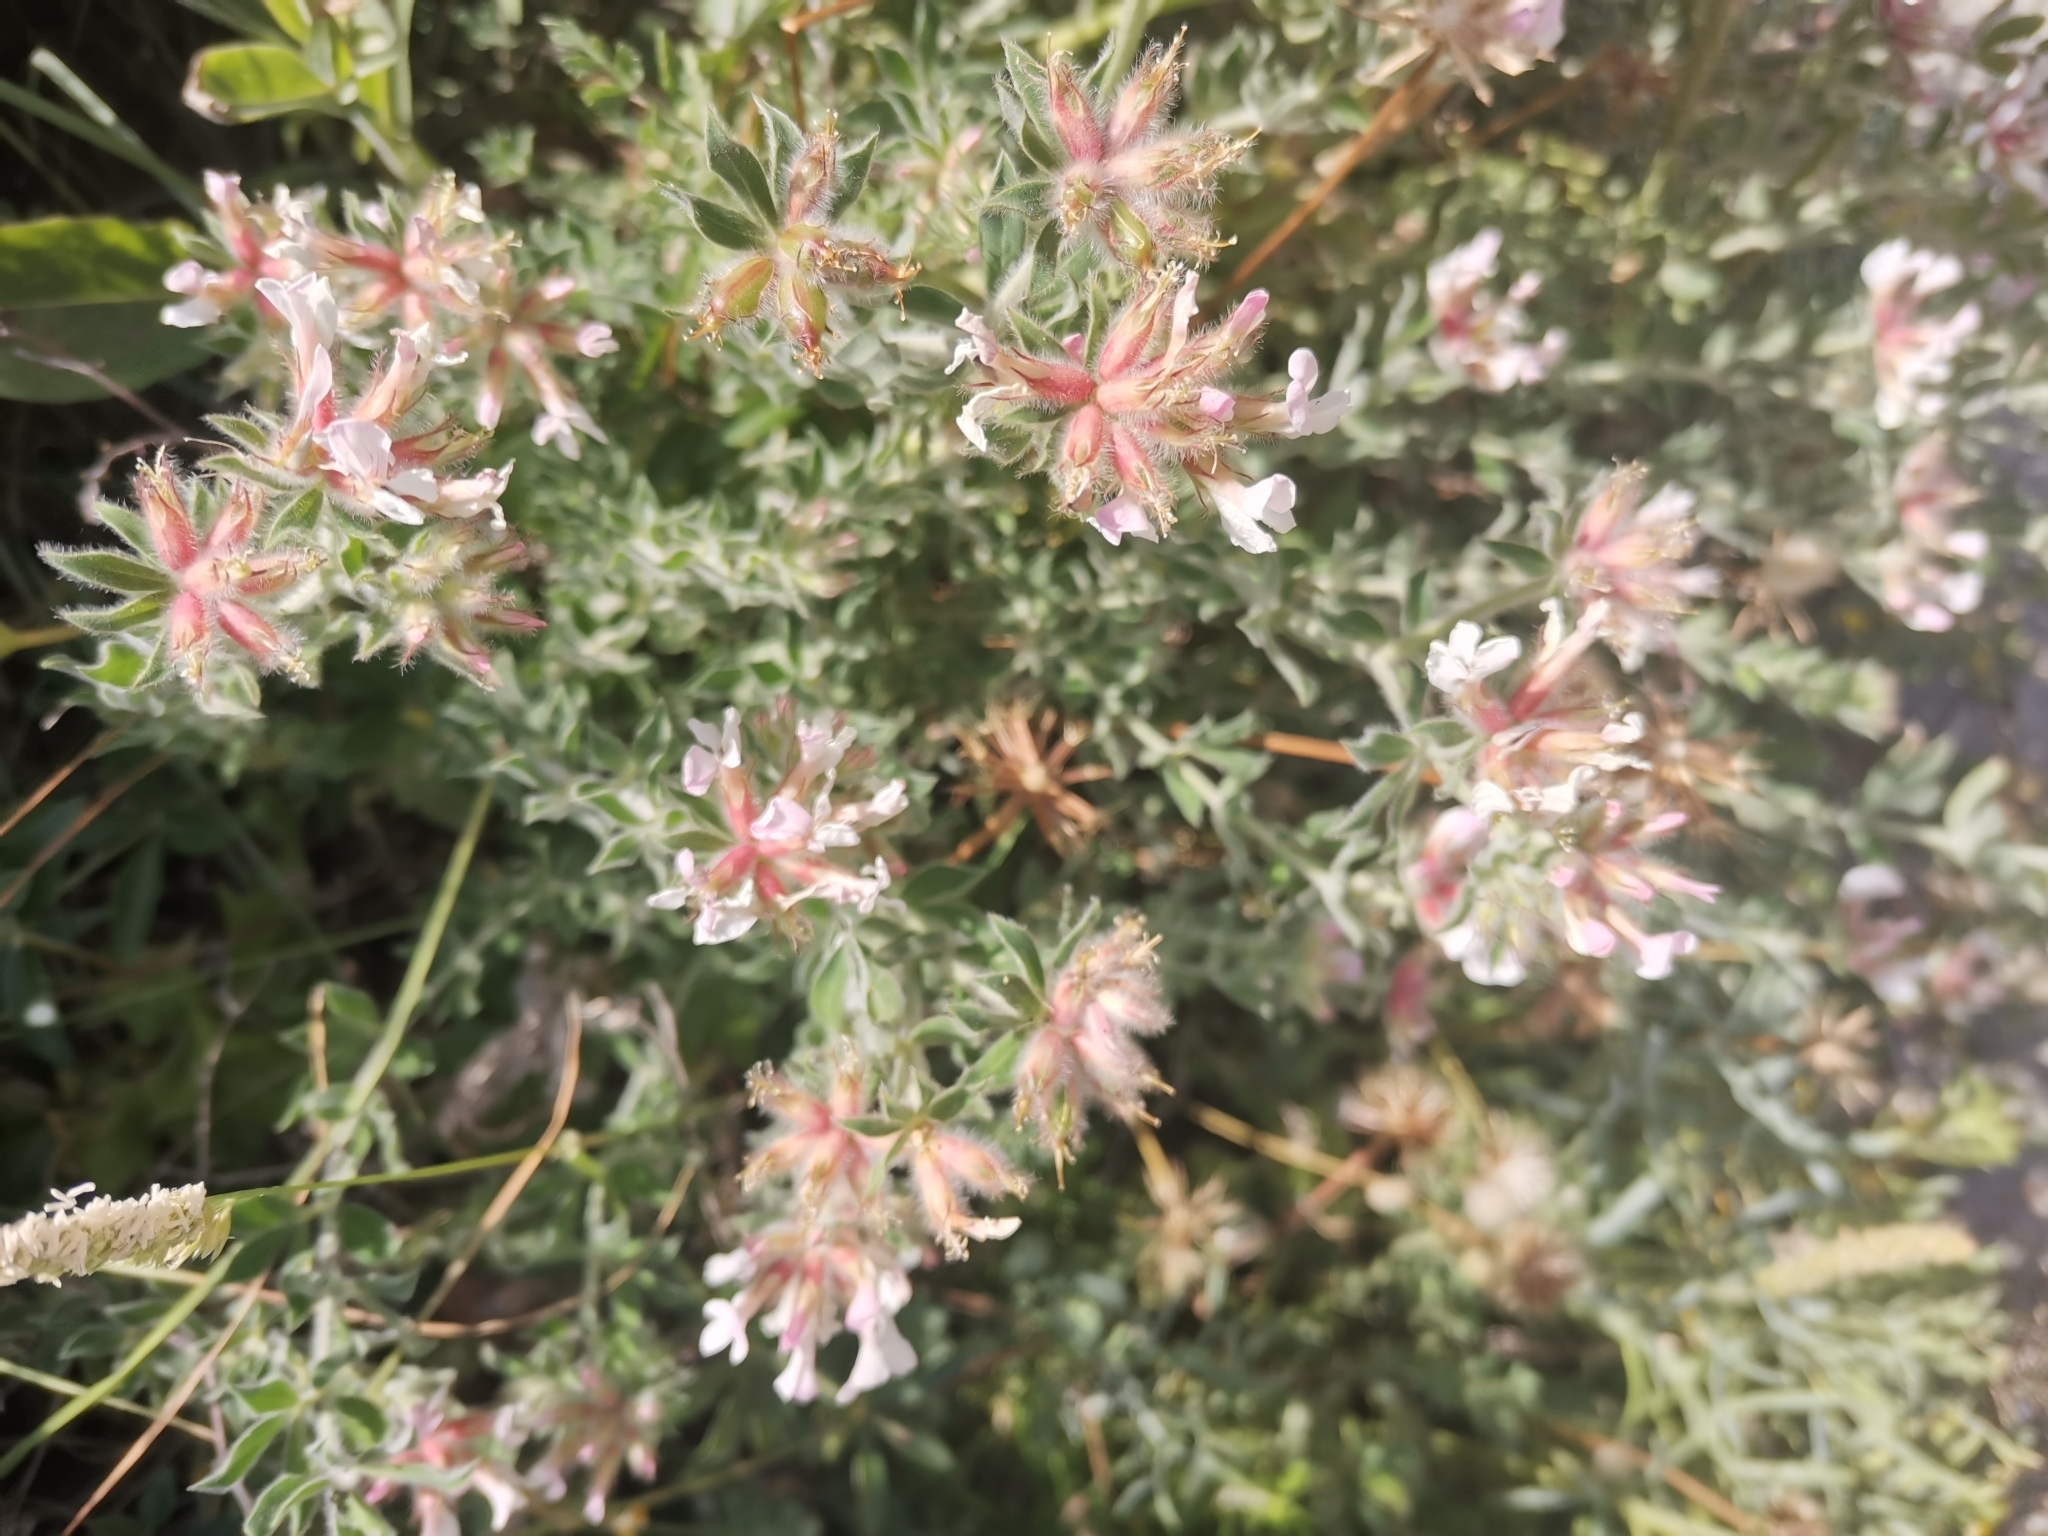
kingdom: Plantae
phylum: Tracheophyta
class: Magnoliopsida
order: Fabales
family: Fabaceae
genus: Lotus
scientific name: Lotus hirsutus
